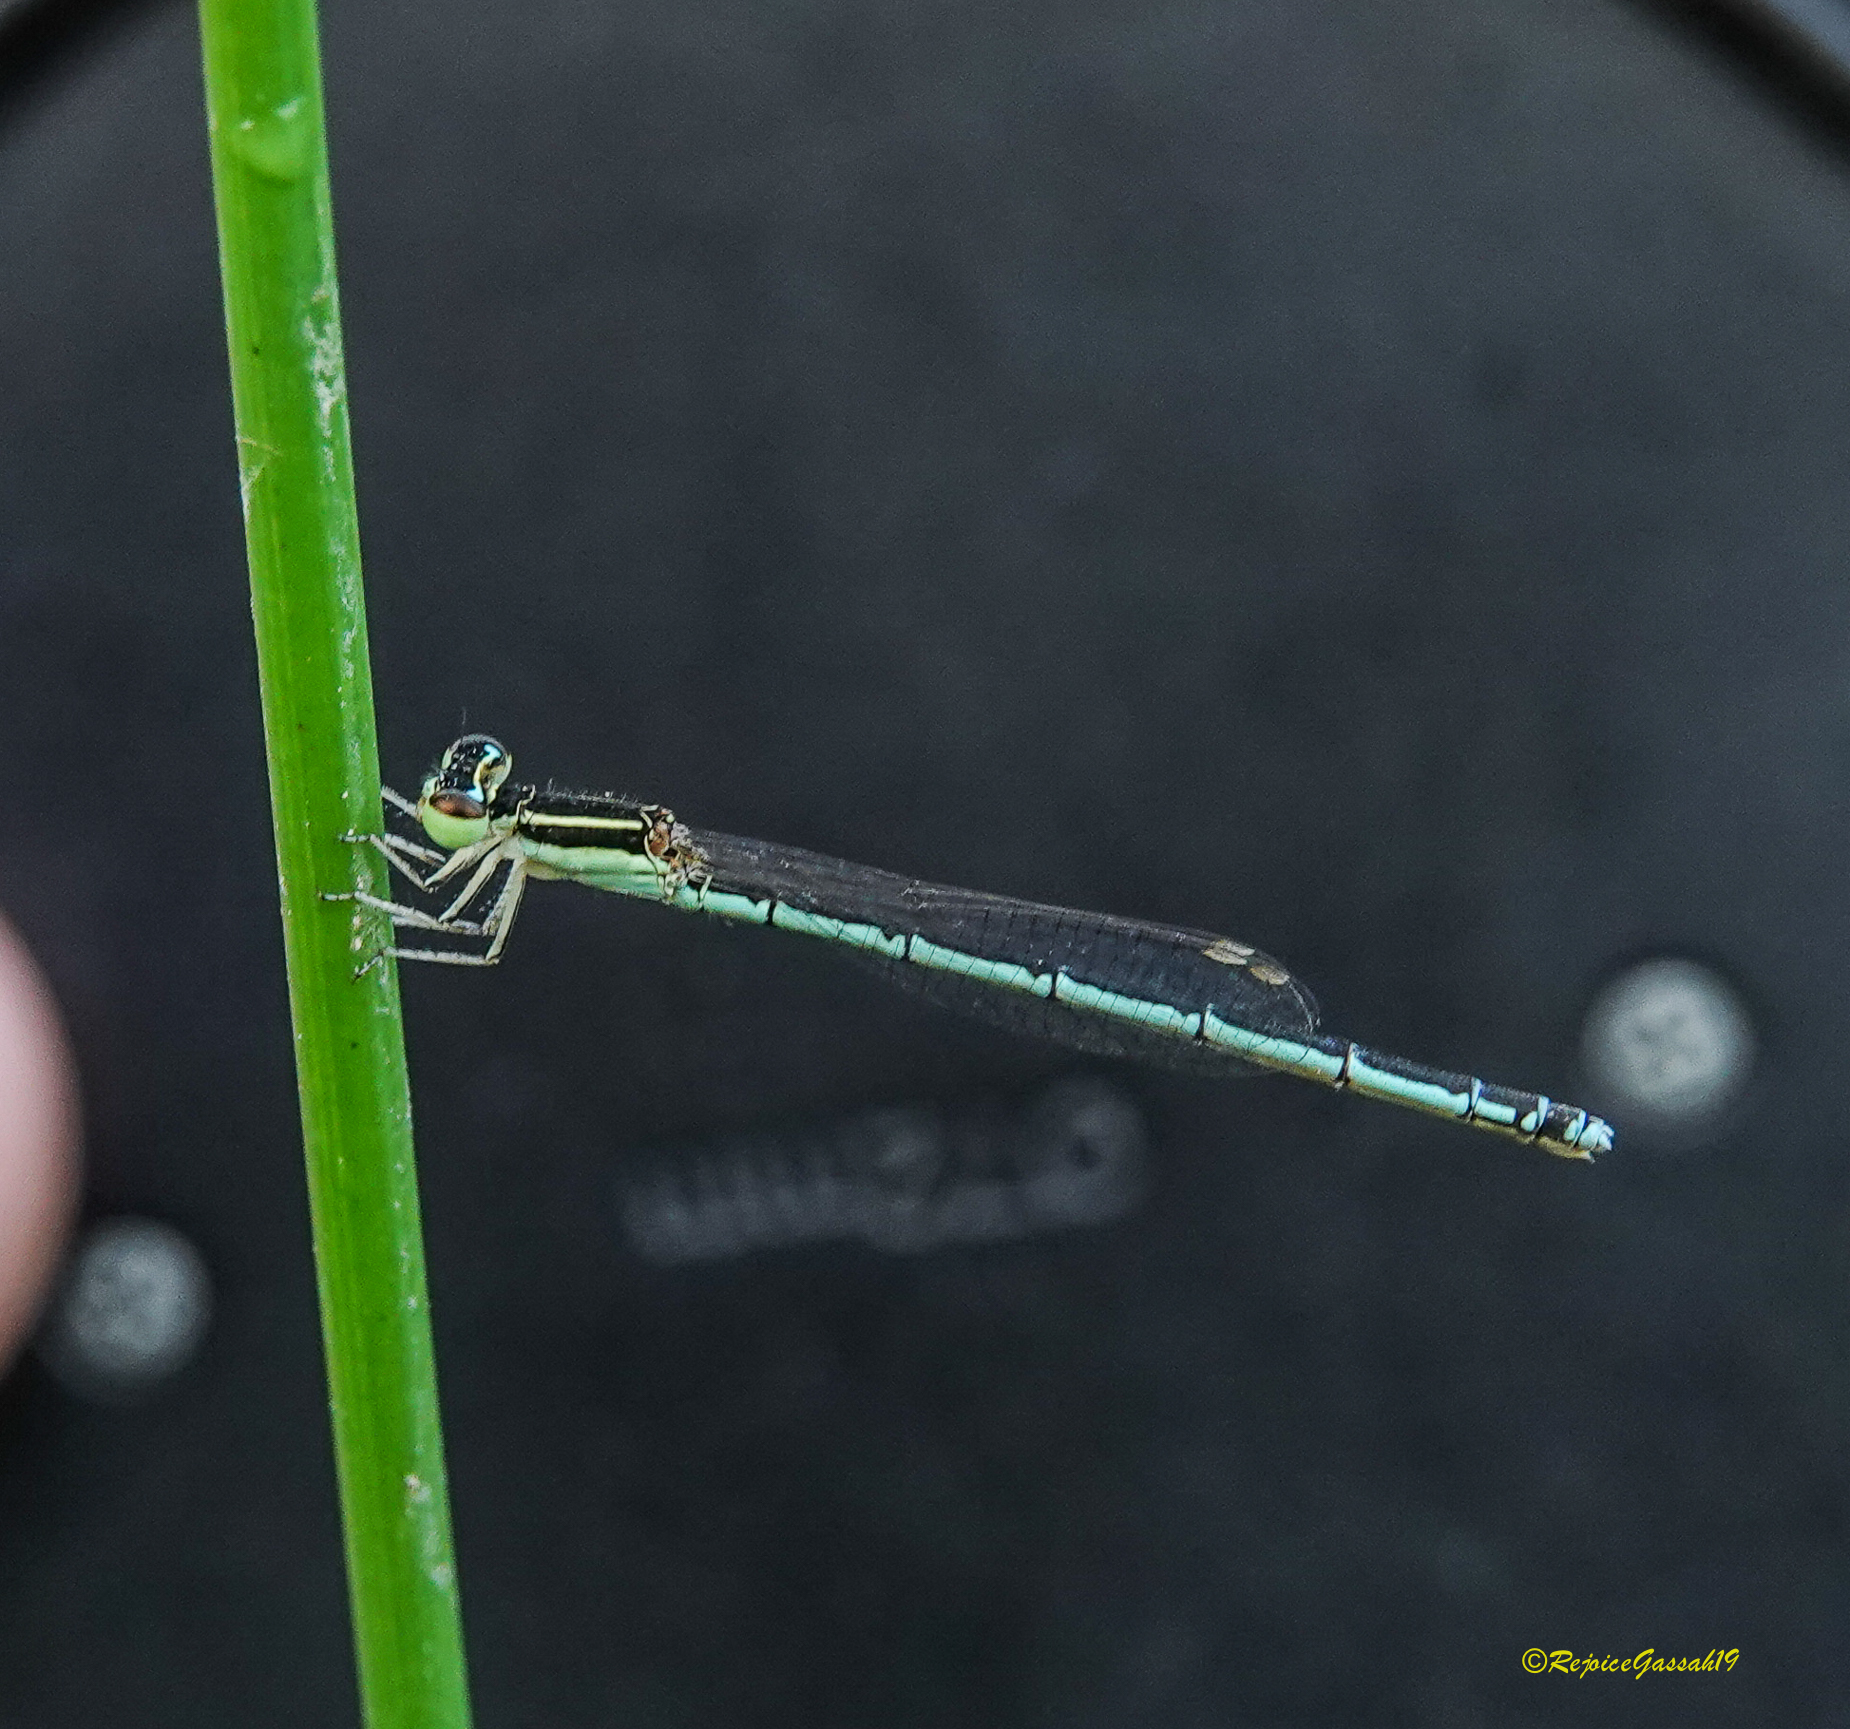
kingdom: Animalia
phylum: Arthropoda
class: Insecta
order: Odonata
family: Coenagrionidae
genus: Agriocnemis
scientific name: Agriocnemis lacteola
